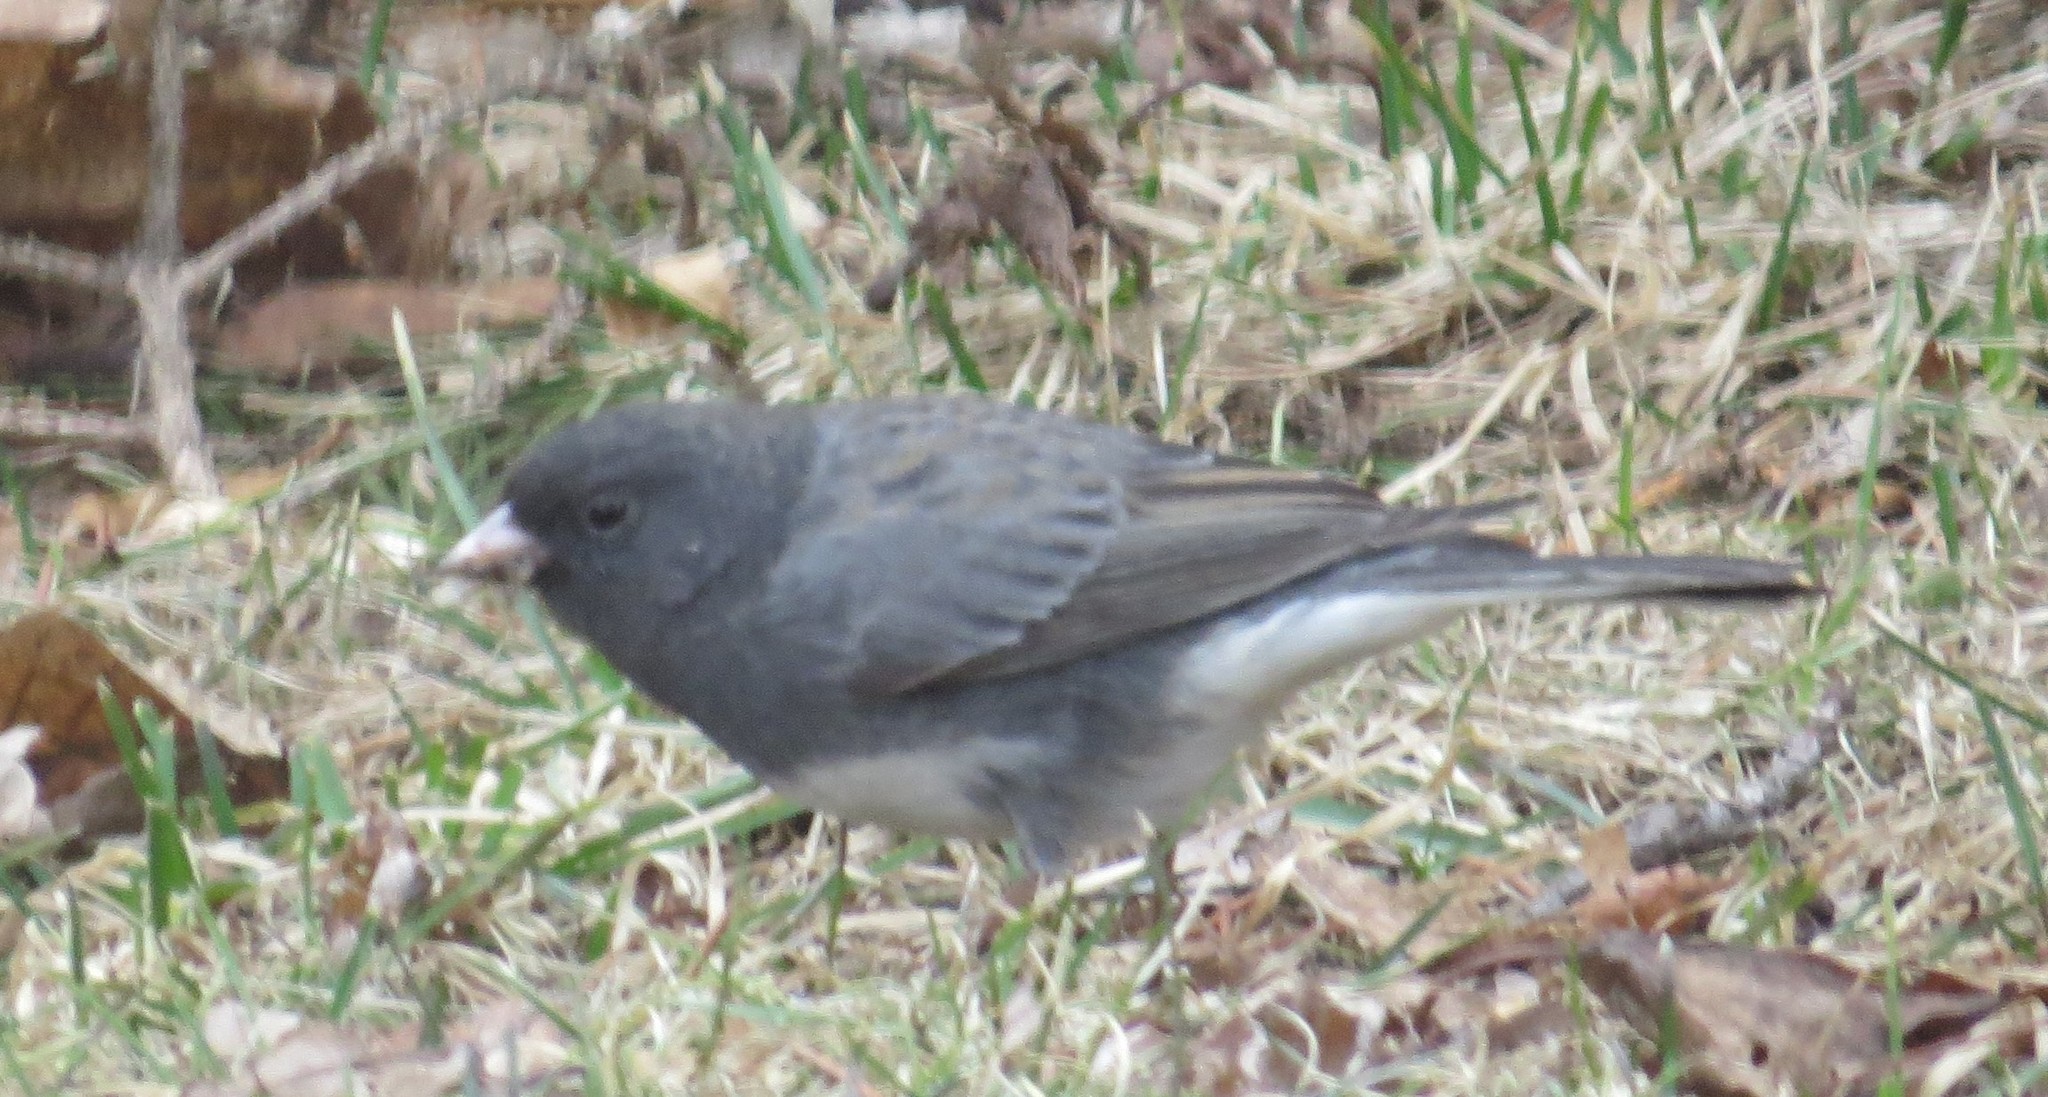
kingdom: Animalia
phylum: Chordata
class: Aves
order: Passeriformes
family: Passerellidae
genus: Junco
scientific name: Junco hyemalis
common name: Dark-eyed junco
